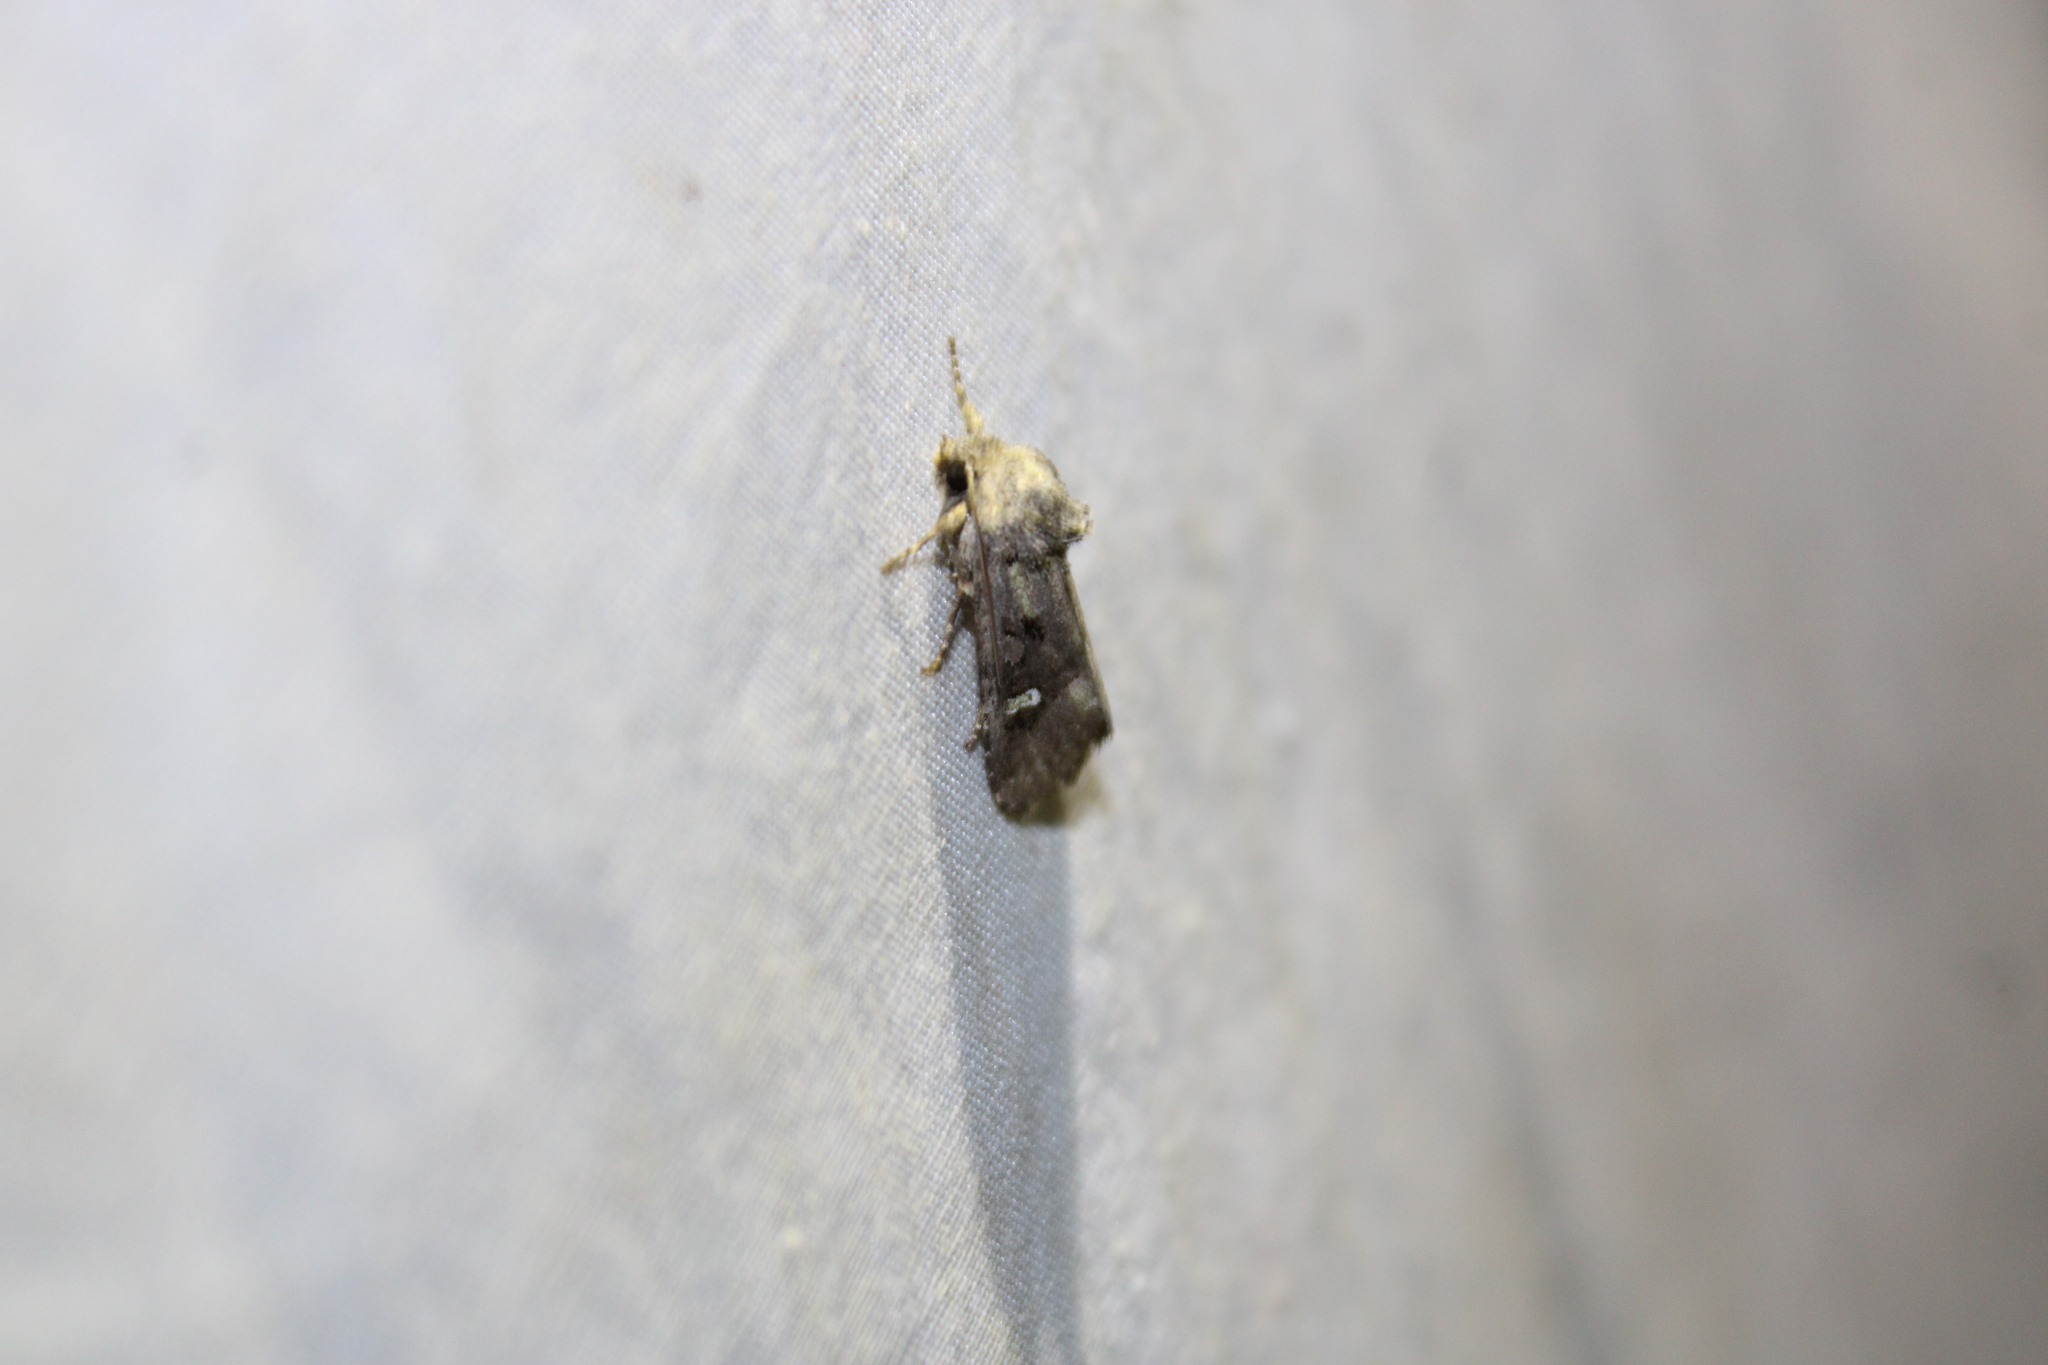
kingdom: Animalia
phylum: Arthropoda
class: Insecta
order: Lepidoptera
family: Noctuidae
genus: Lacinipolia
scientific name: Lacinipolia renigera
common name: Kidney-spotted minor
